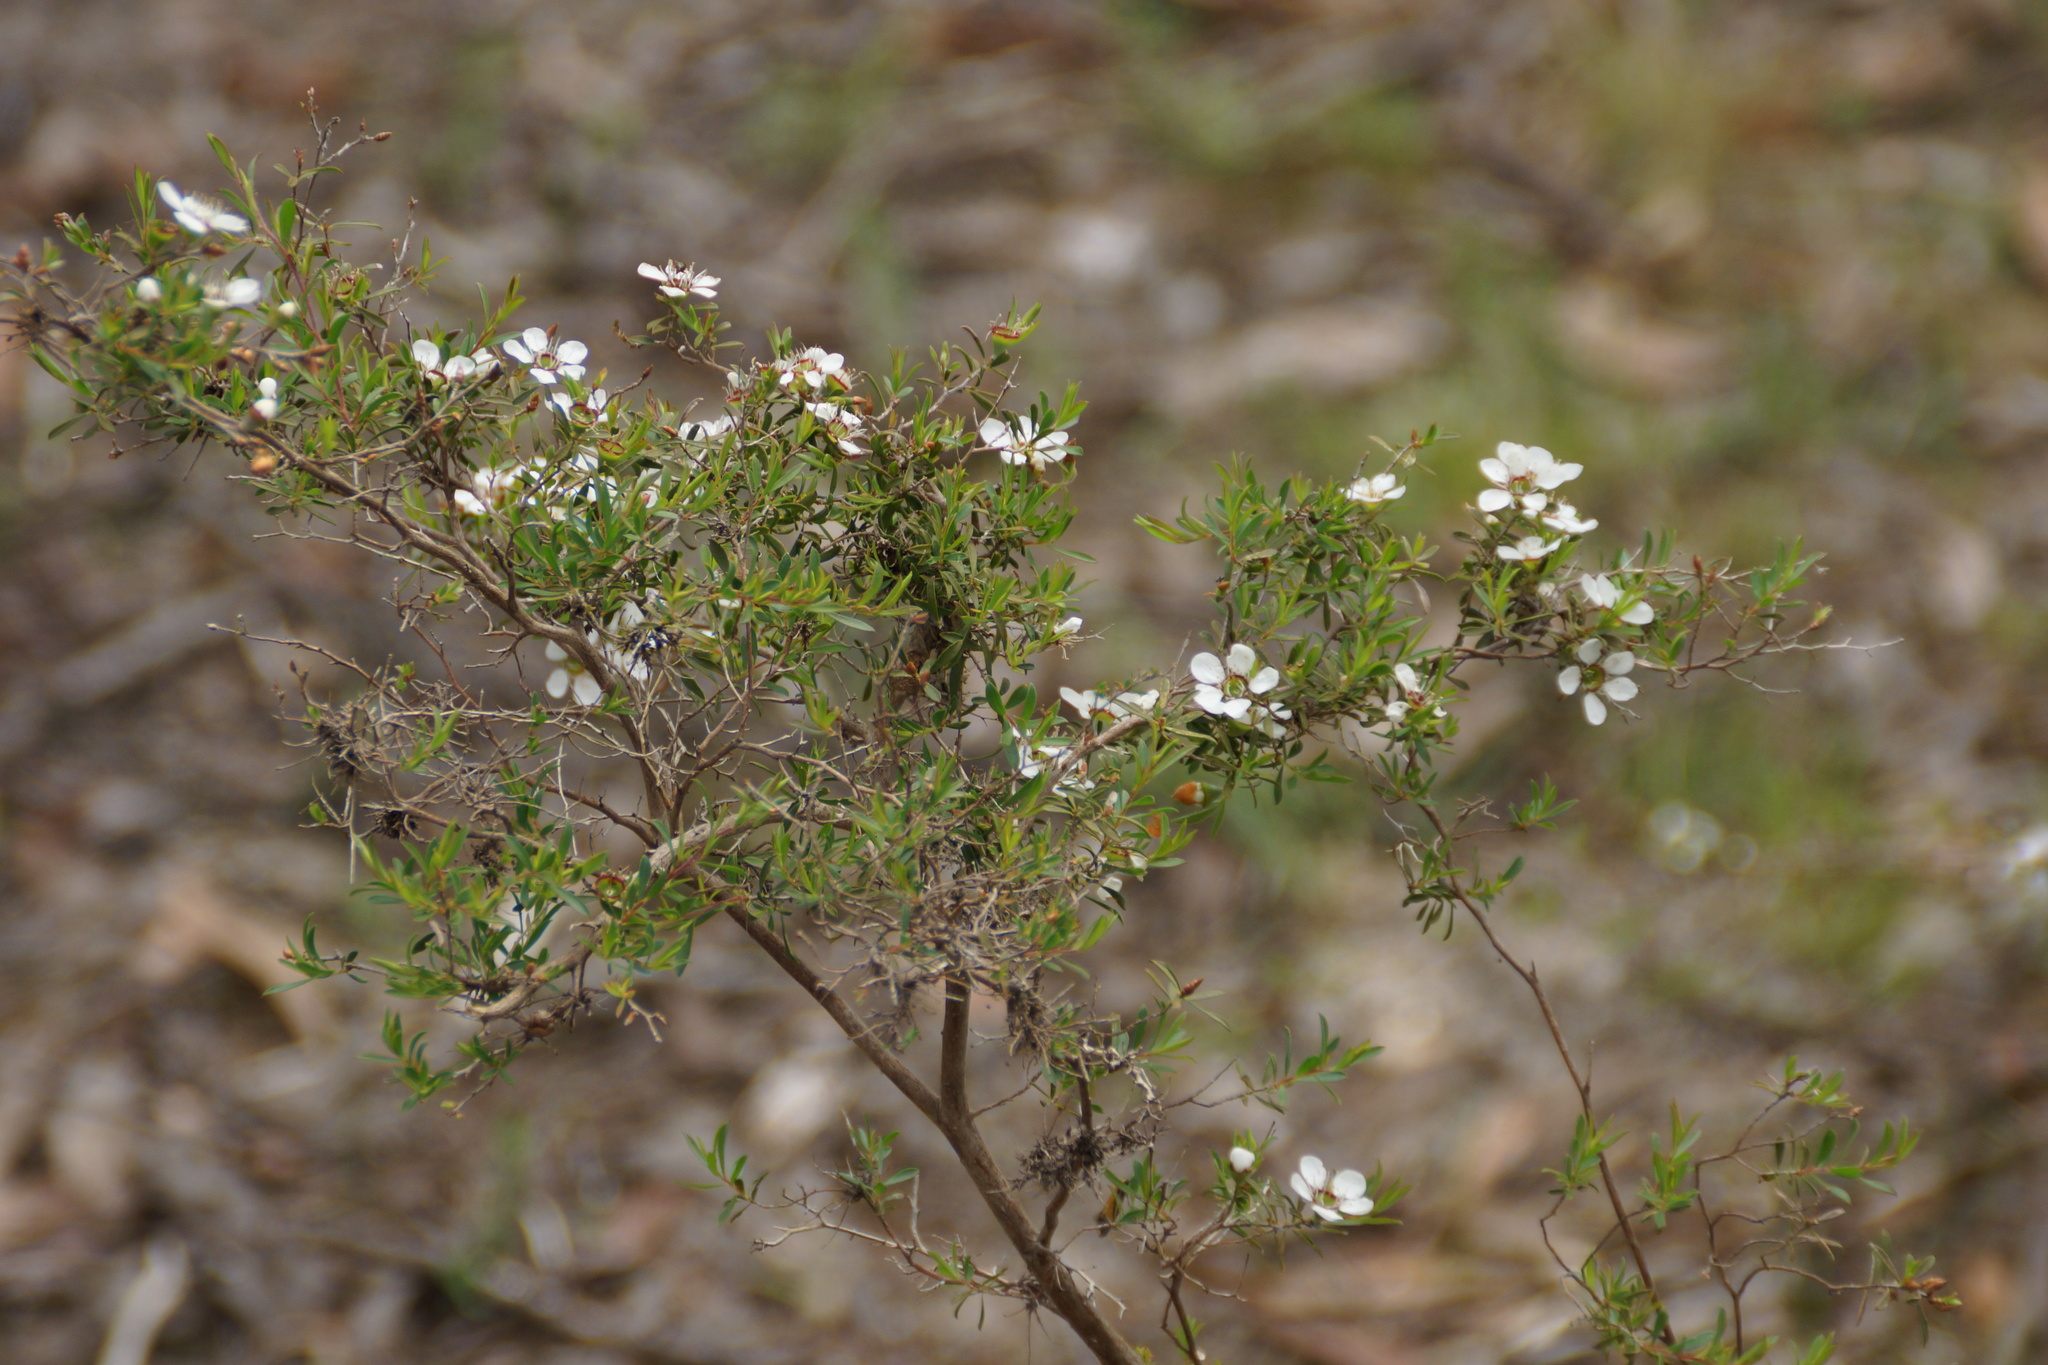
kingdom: Plantae
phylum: Tracheophyta
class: Magnoliopsida
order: Myrtales
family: Myrtaceae
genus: Leptospermum
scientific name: Leptospermum myrsinoides
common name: Heath teatree
